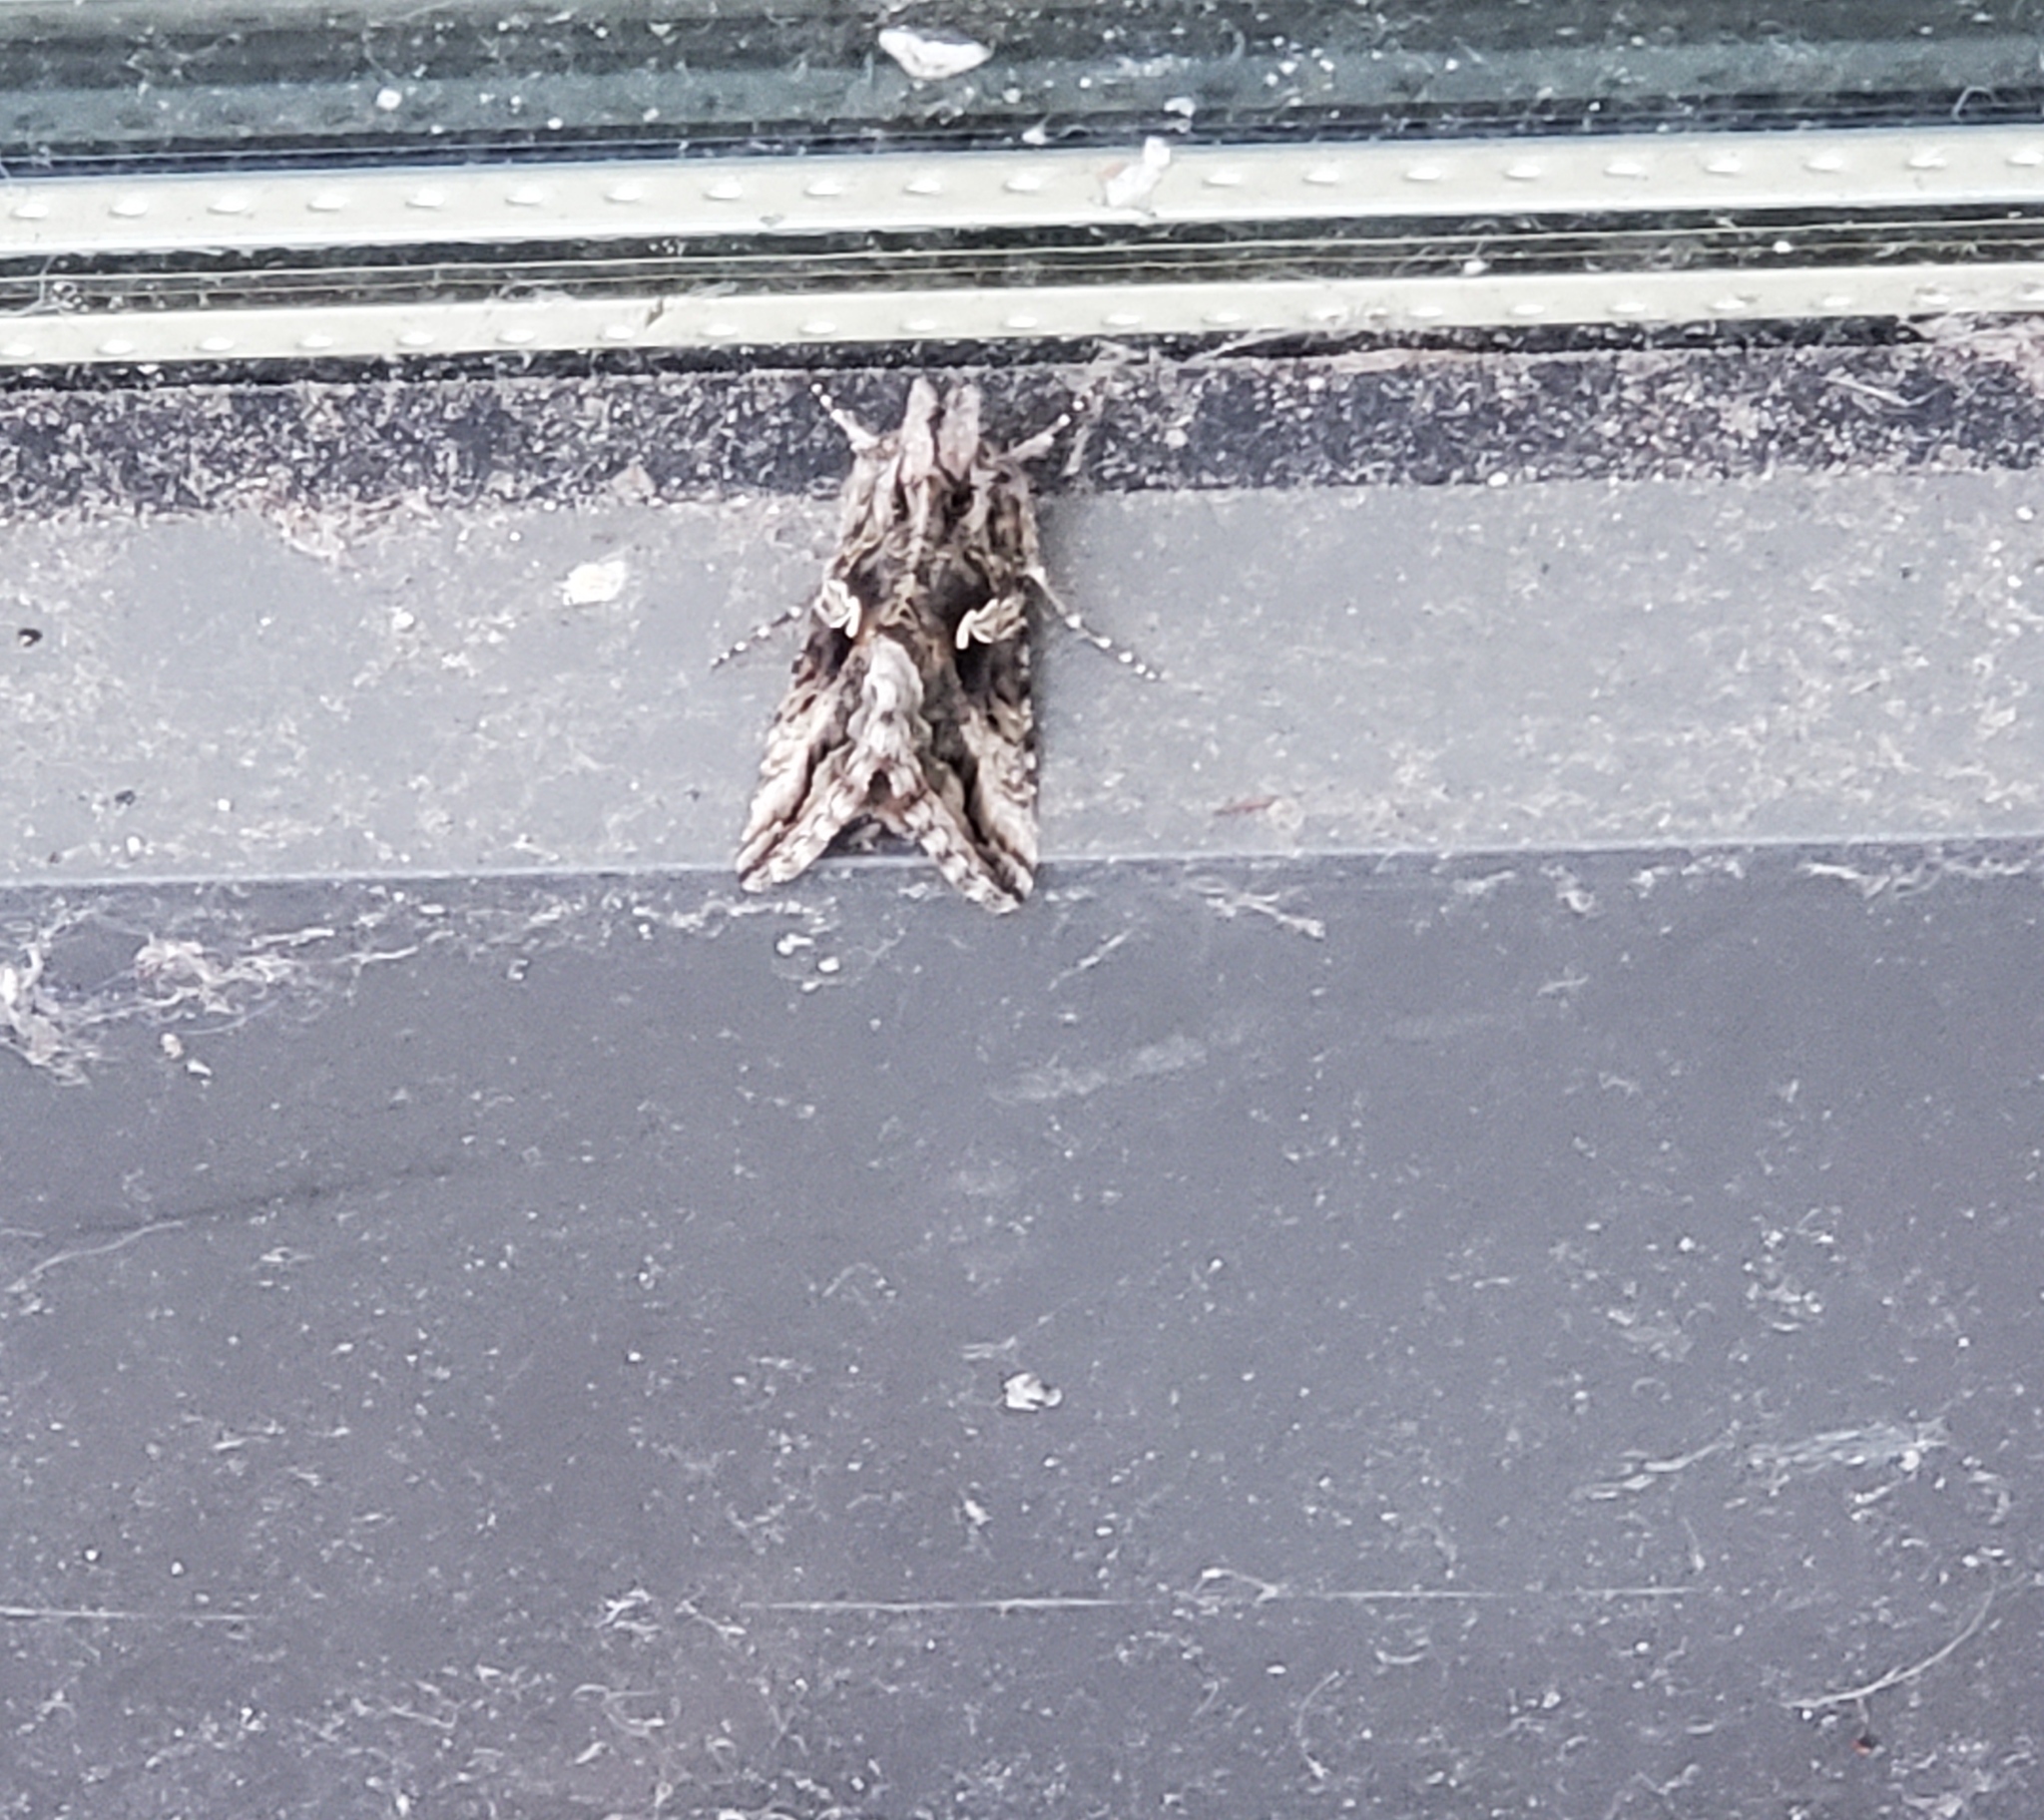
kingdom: Animalia
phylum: Arthropoda
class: Insecta
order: Lepidoptera
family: Noctuidae
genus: Autographa
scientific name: Autographa californica
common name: Alfalfa looper
